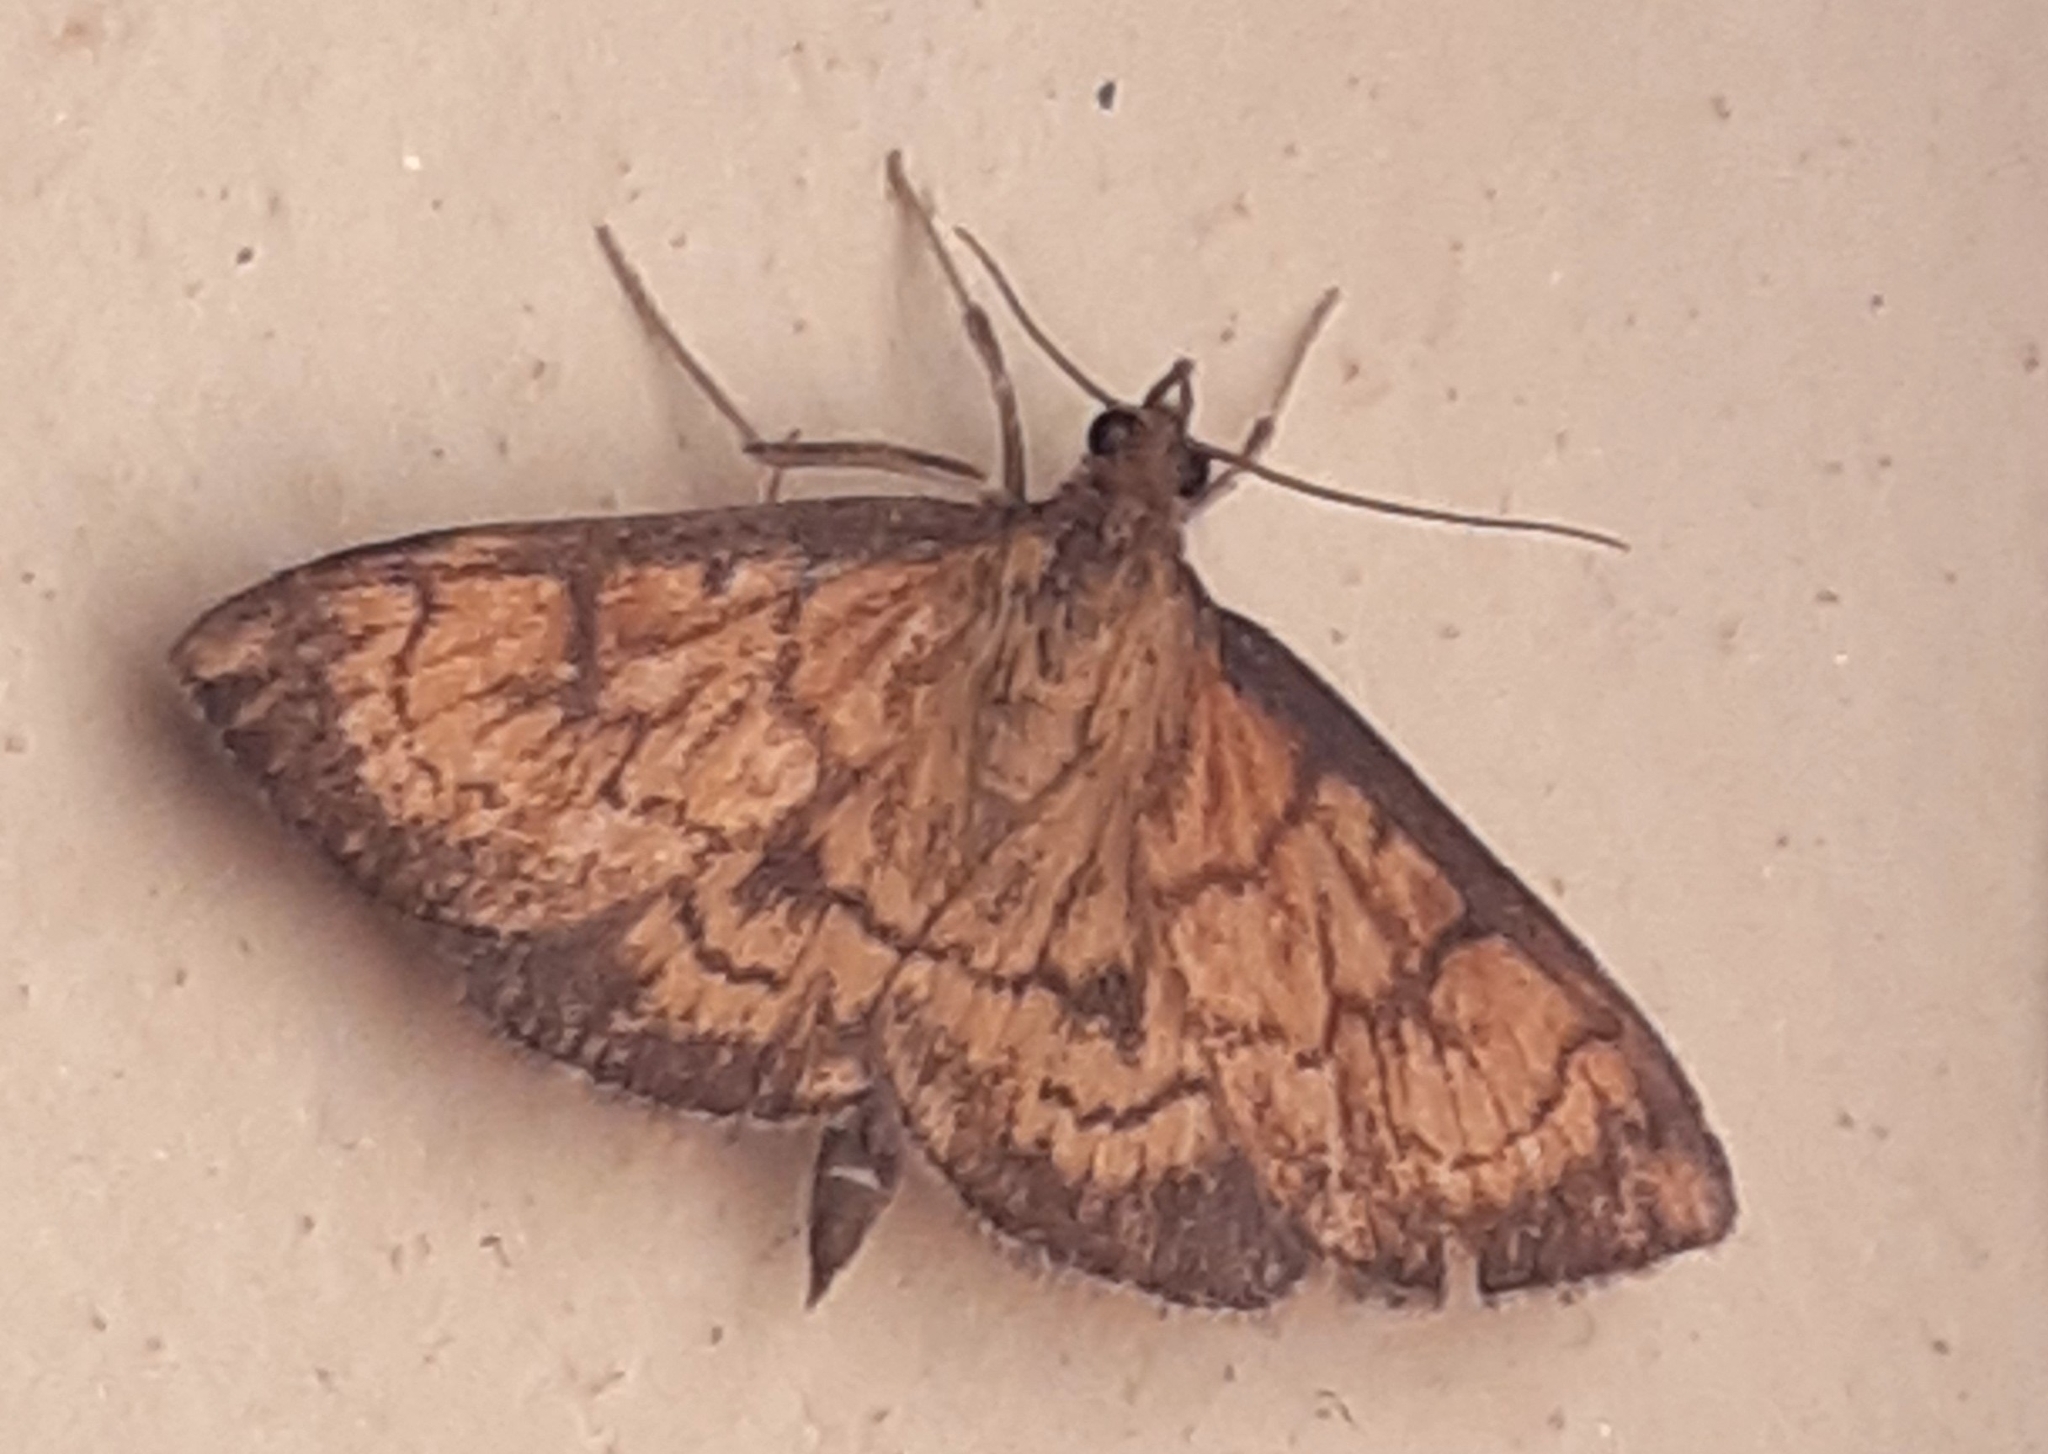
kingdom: Animalia
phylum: Arthropoda
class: Insecta
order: Lepidoptera
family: Crambidae
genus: Ecpyrrhorrhoe
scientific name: Ecpyrrhorrhoe rubiginalis
